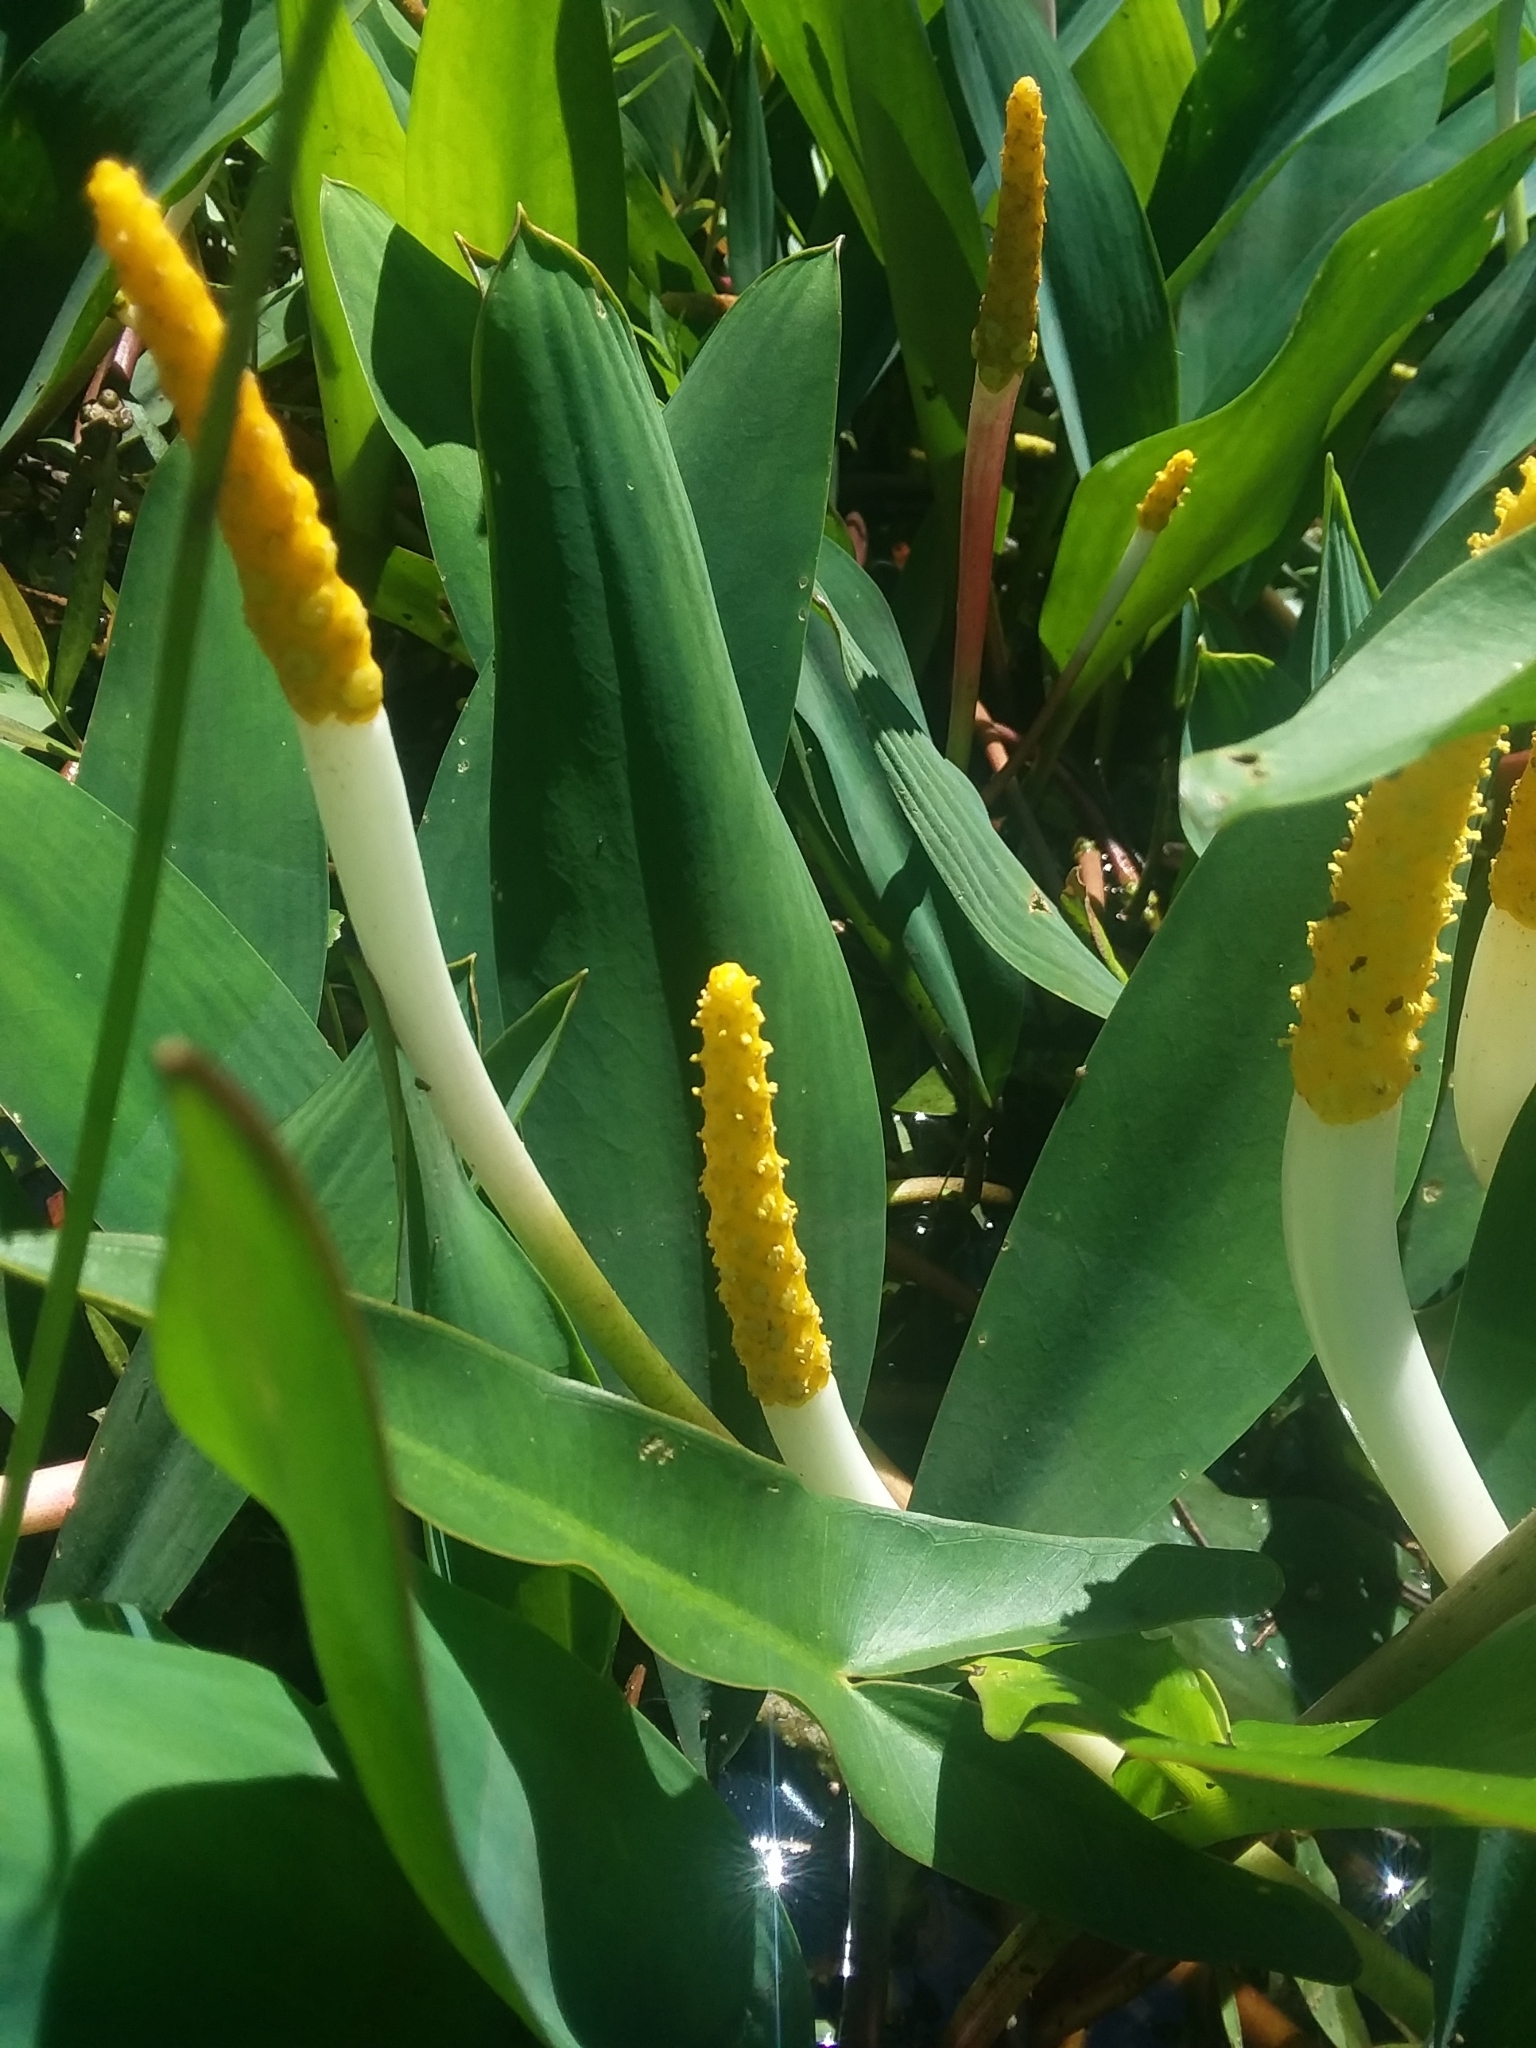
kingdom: Plantae
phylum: Tracheophyta
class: Liliopsida
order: Alismatales
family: Araceae
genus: Orontium
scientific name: Orontium aquaticum
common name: Golden-club
